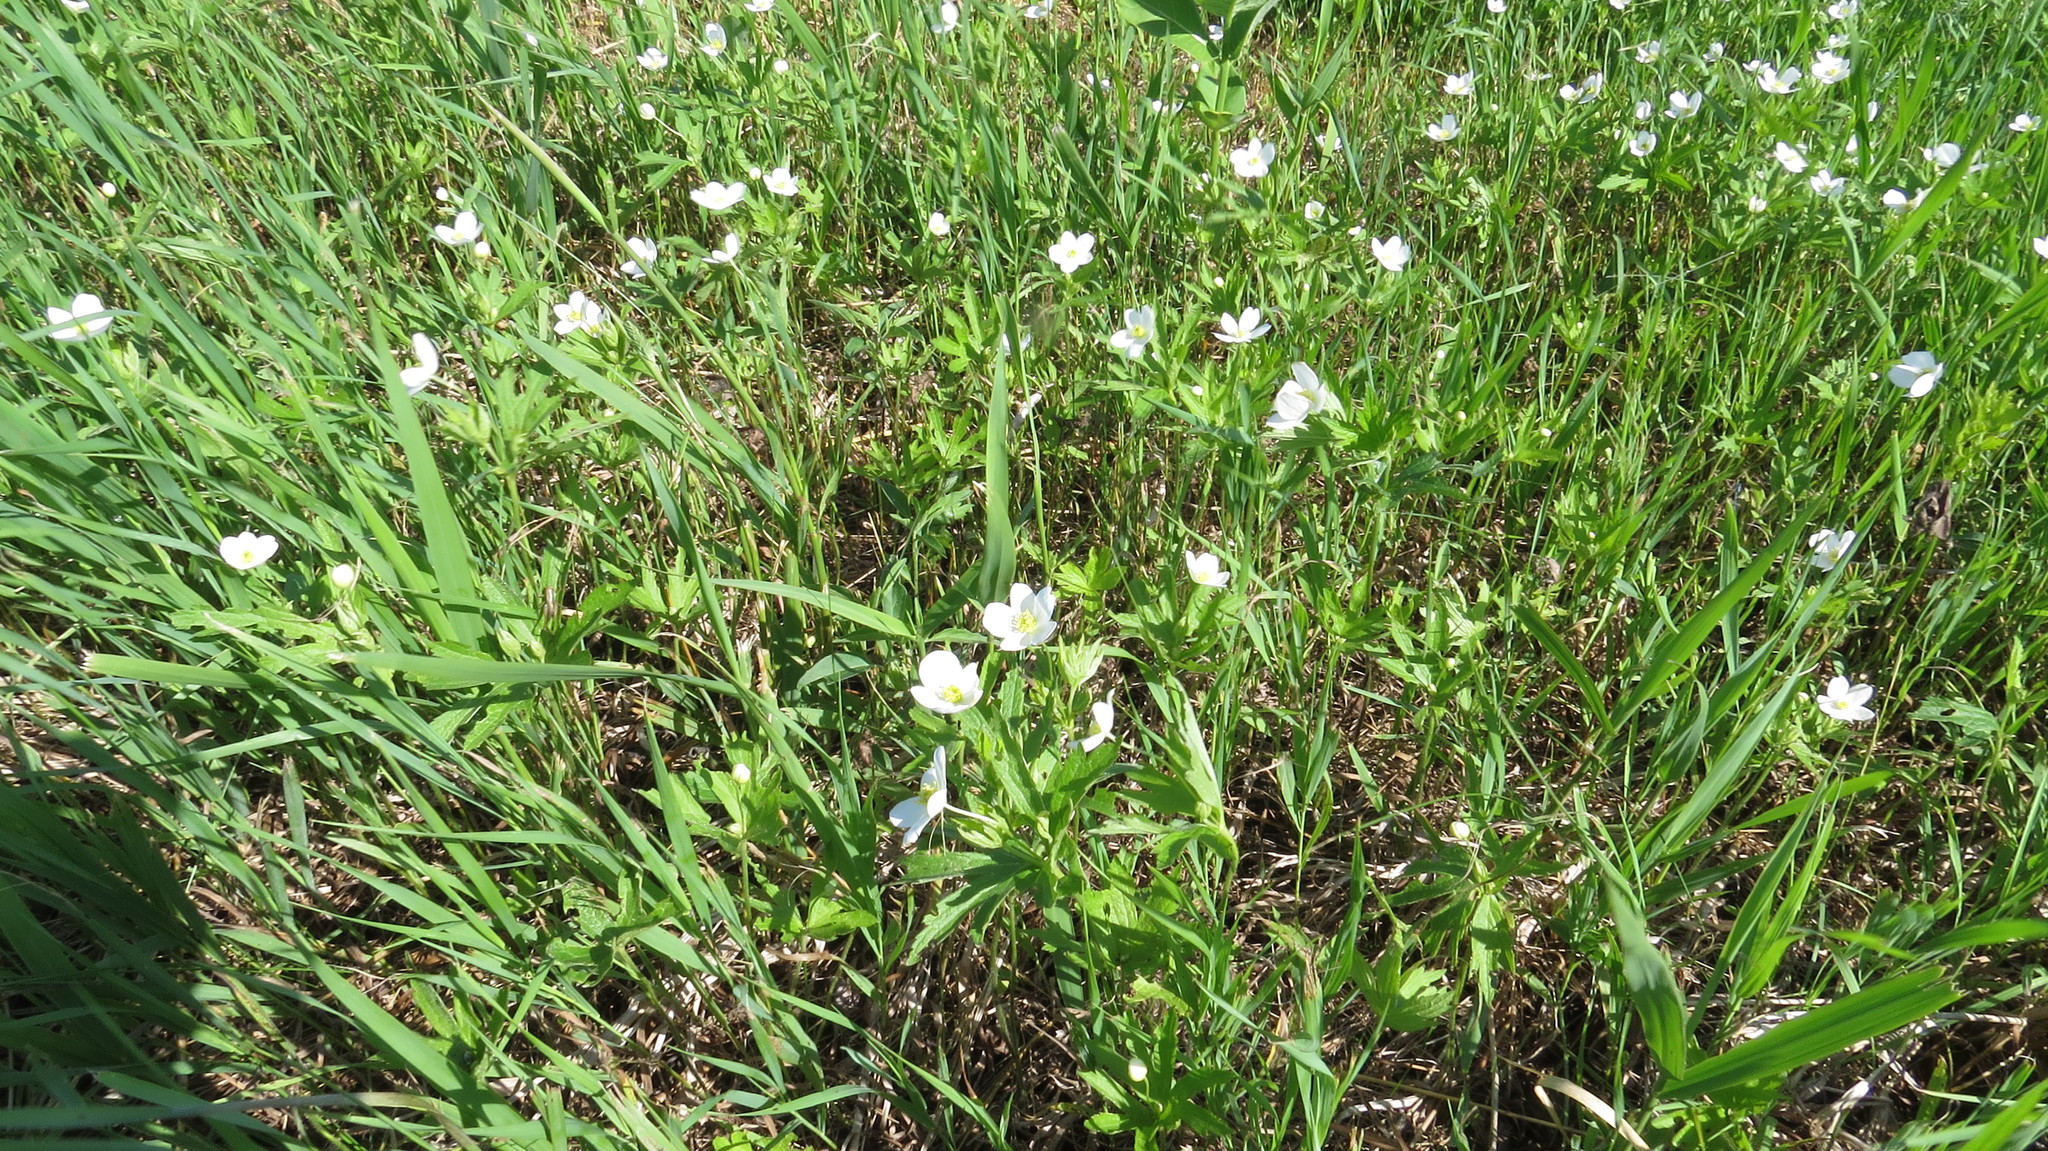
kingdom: Plantae
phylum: Tracheophyta
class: Magnoliopsida
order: Ranunculales
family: Ranunculaceae
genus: Anemonastrum
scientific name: Anemonastrum canadense
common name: Canada anemone
